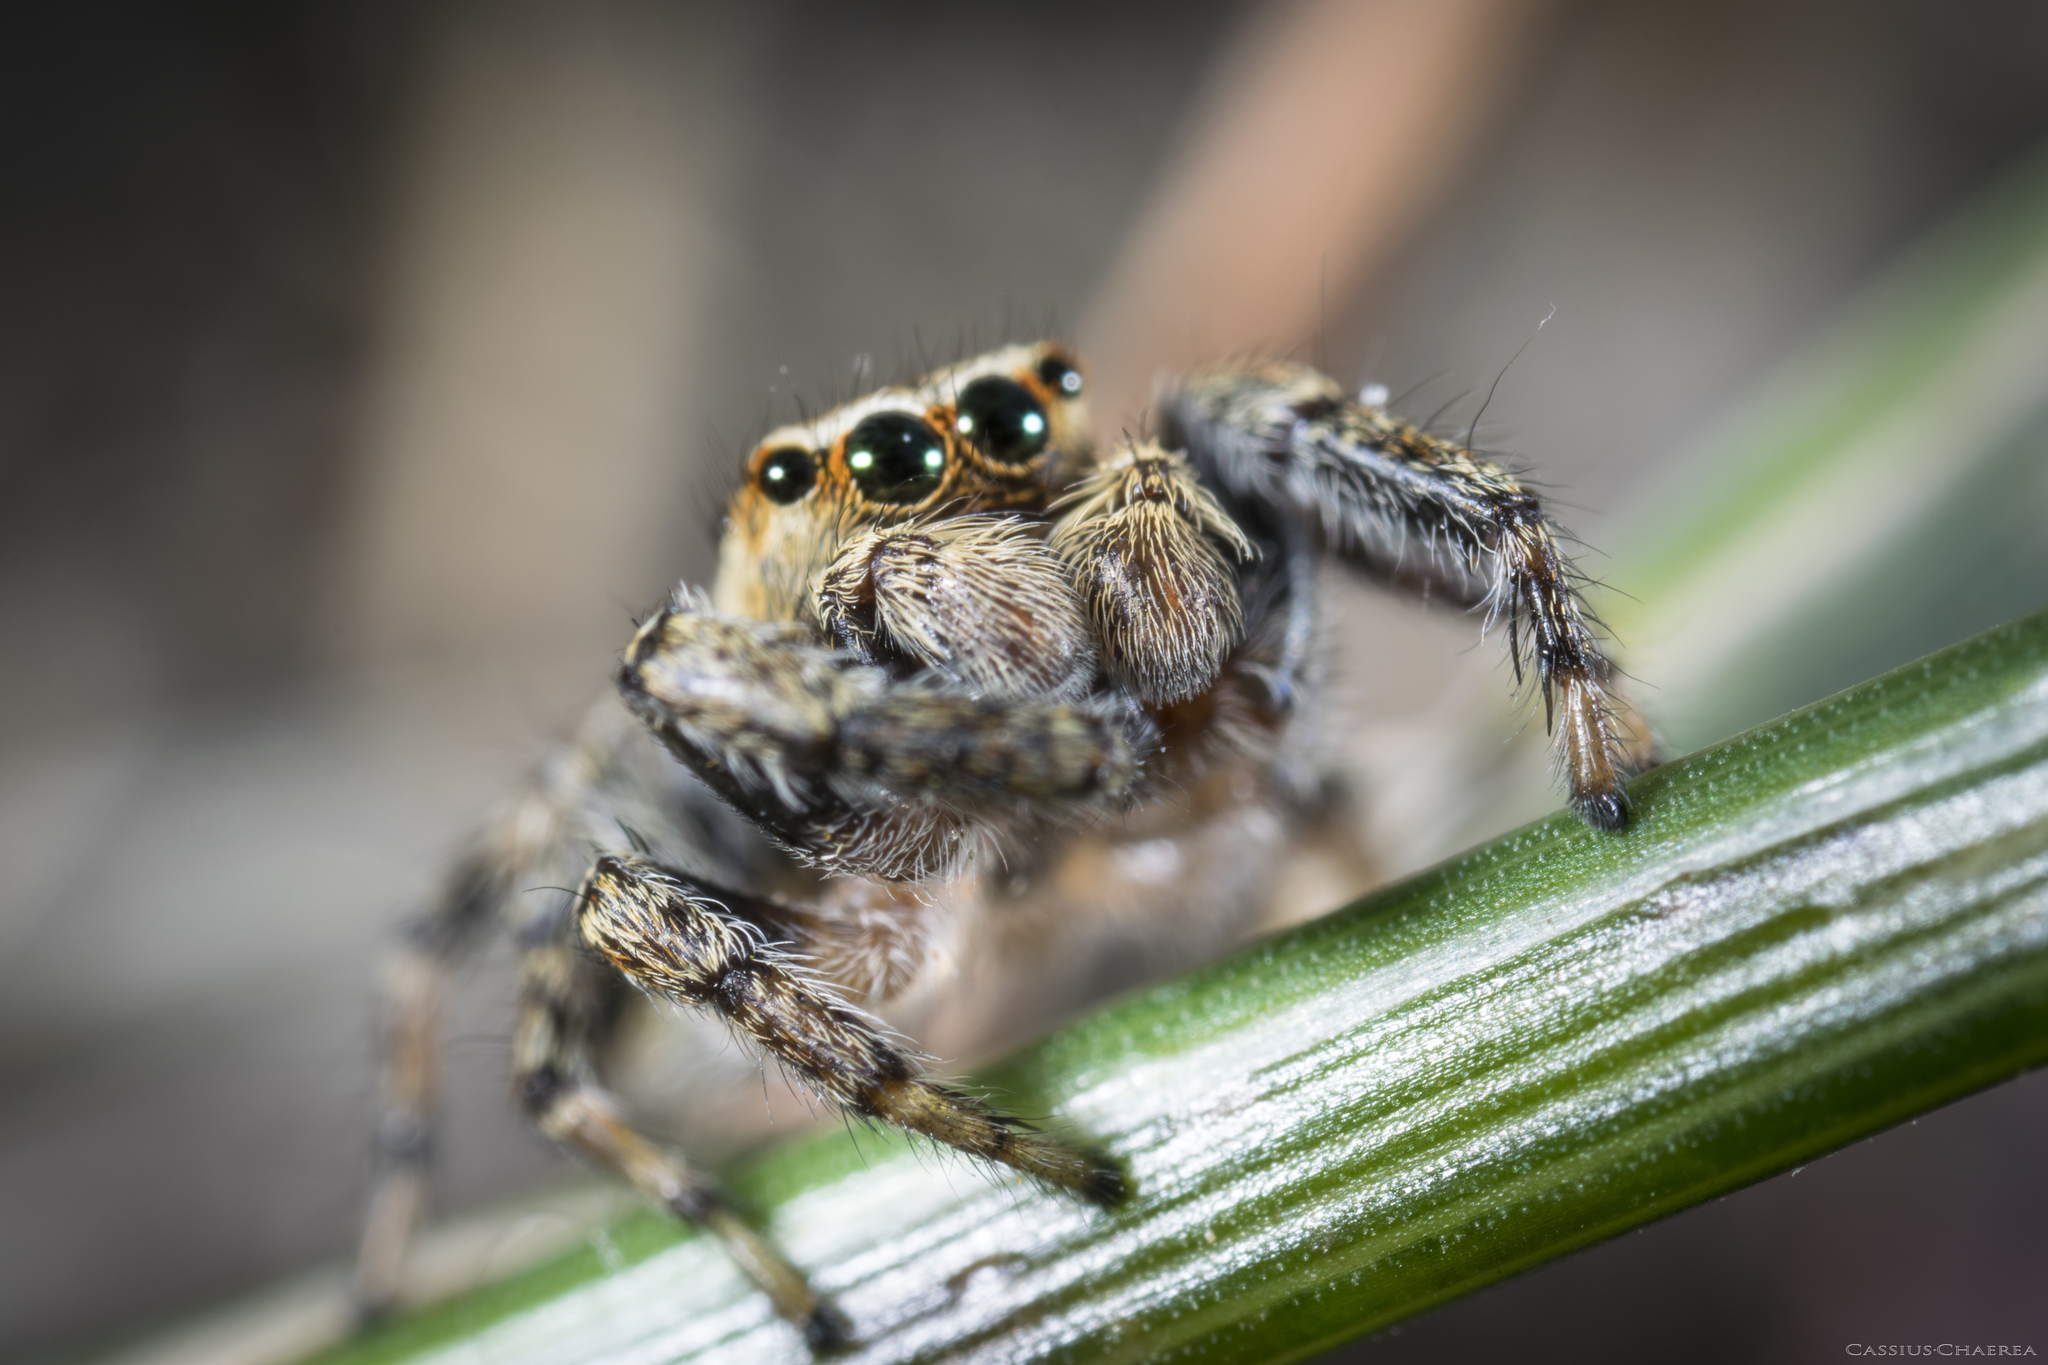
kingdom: Animalia
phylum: Arthropoda
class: Arachnida
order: Araneae
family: Salticidae
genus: Evarcha
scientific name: Evarcha falcata
